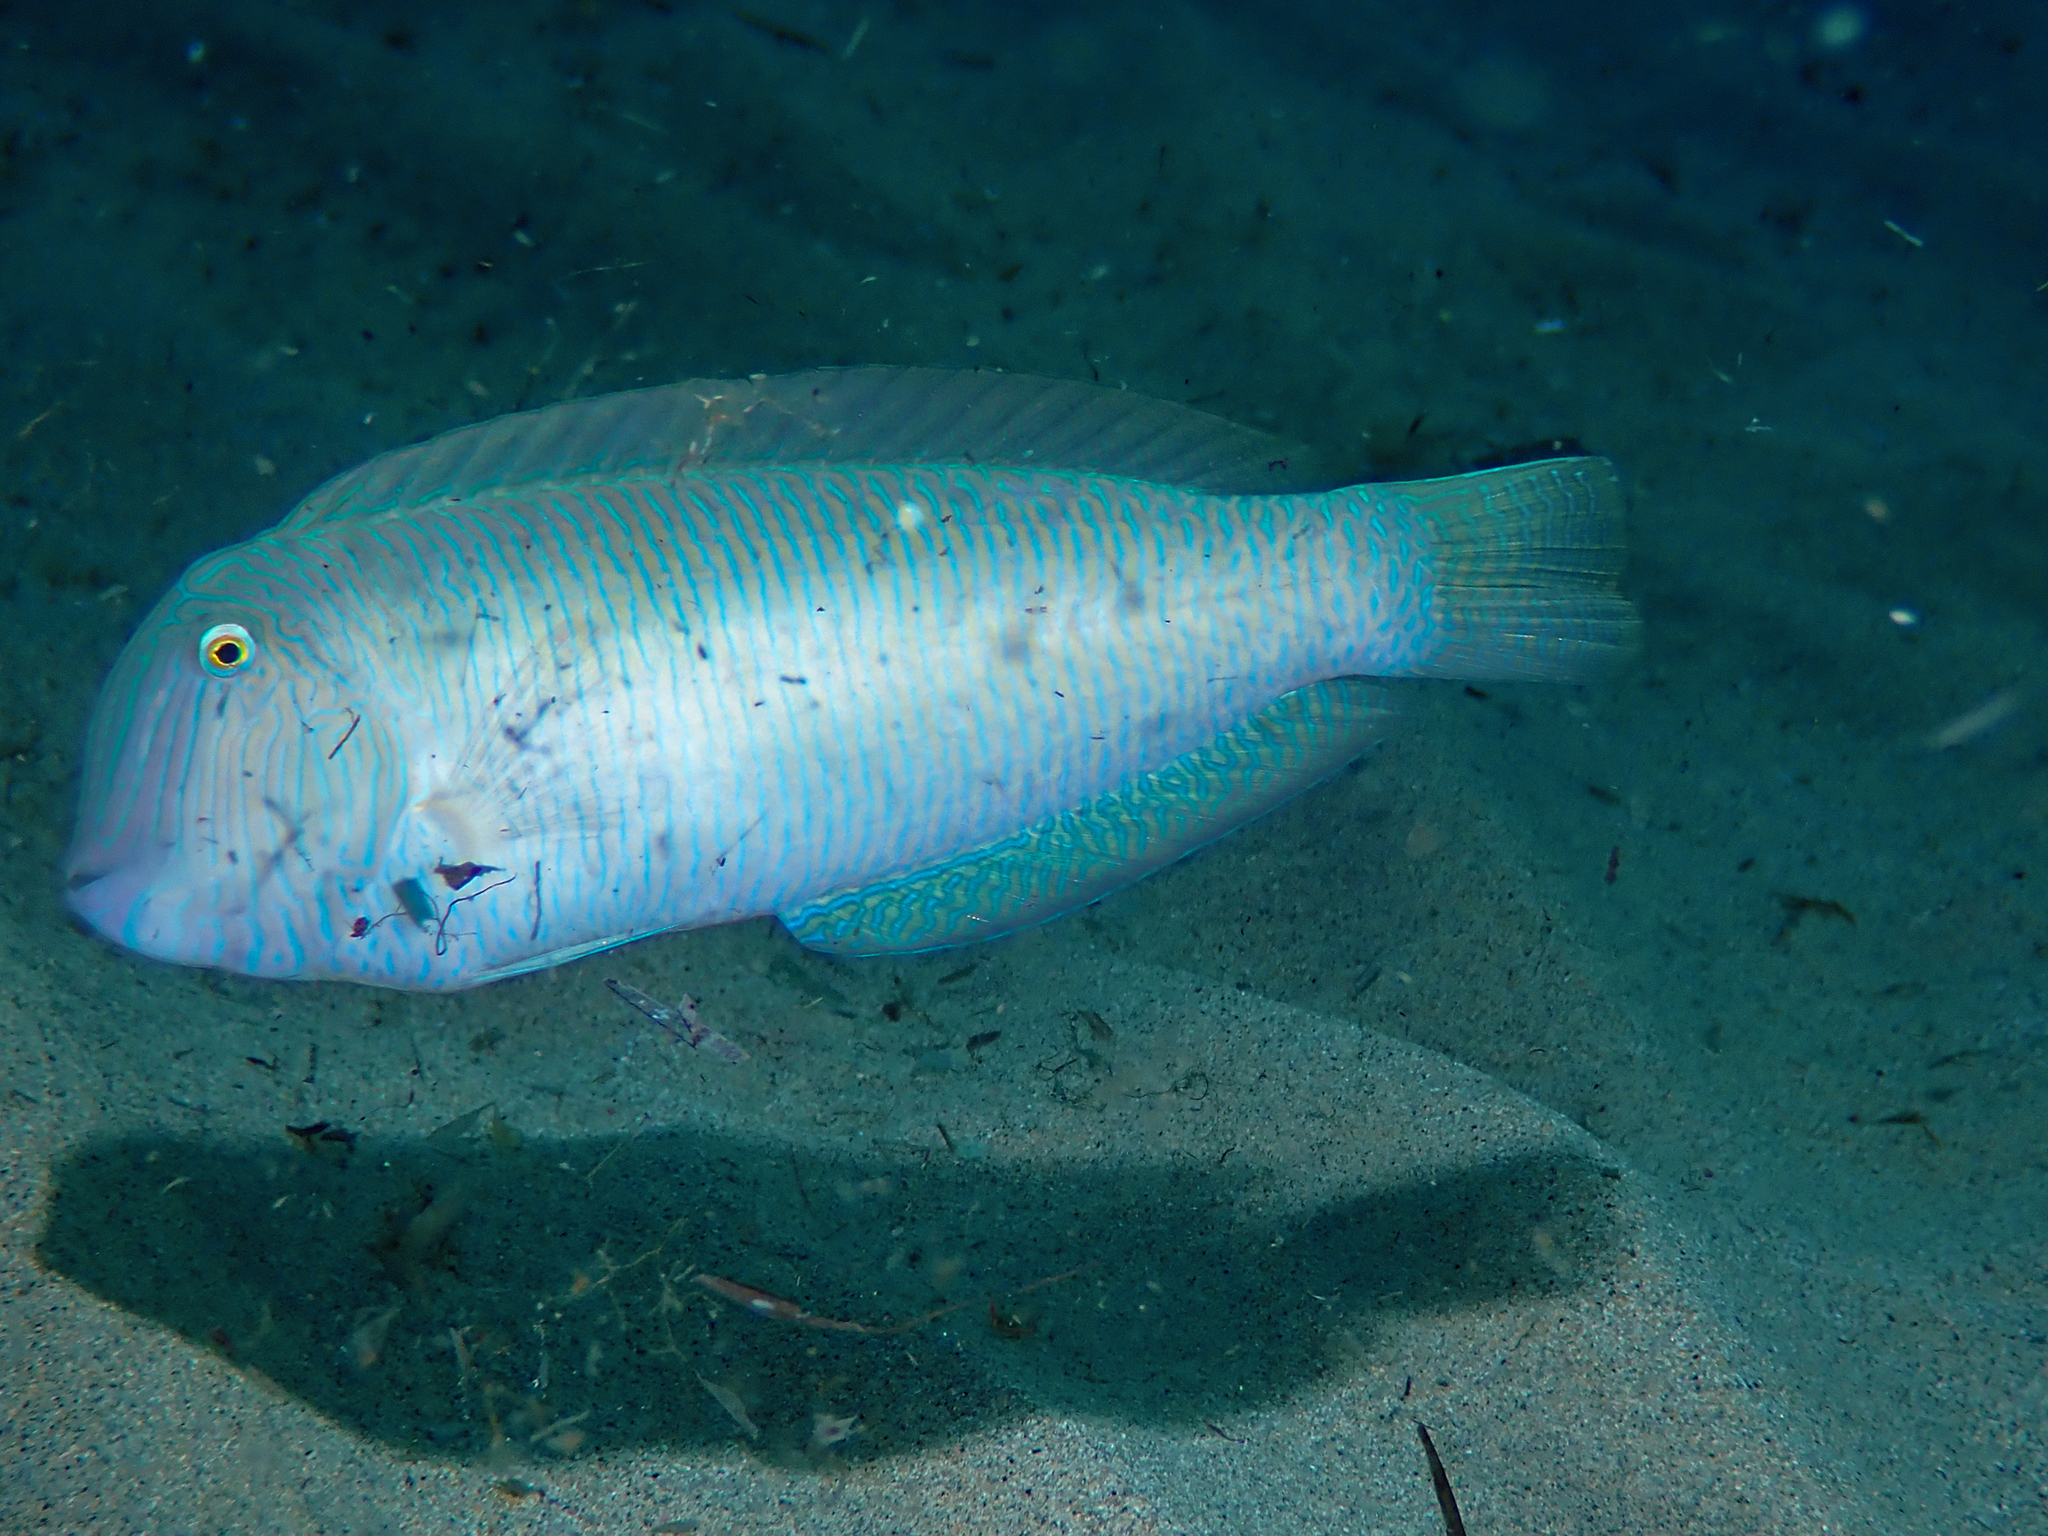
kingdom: Animalia
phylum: Chordata
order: Perciformes
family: Labridae
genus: Xyrichtys
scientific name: Xyrichtys novacula
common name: Pearly razorfish
